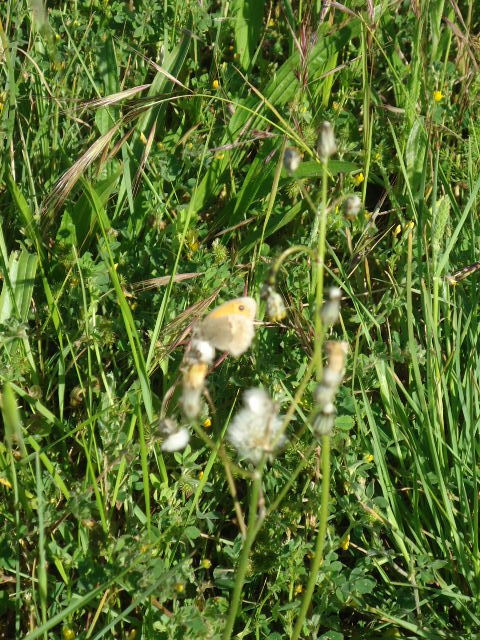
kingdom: Animalia
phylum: Arthropoda
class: Insecta
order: Lepidoptera
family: Nymphalidae
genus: Coenonympha
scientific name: Coenonympha pamphilus
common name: Small heath
